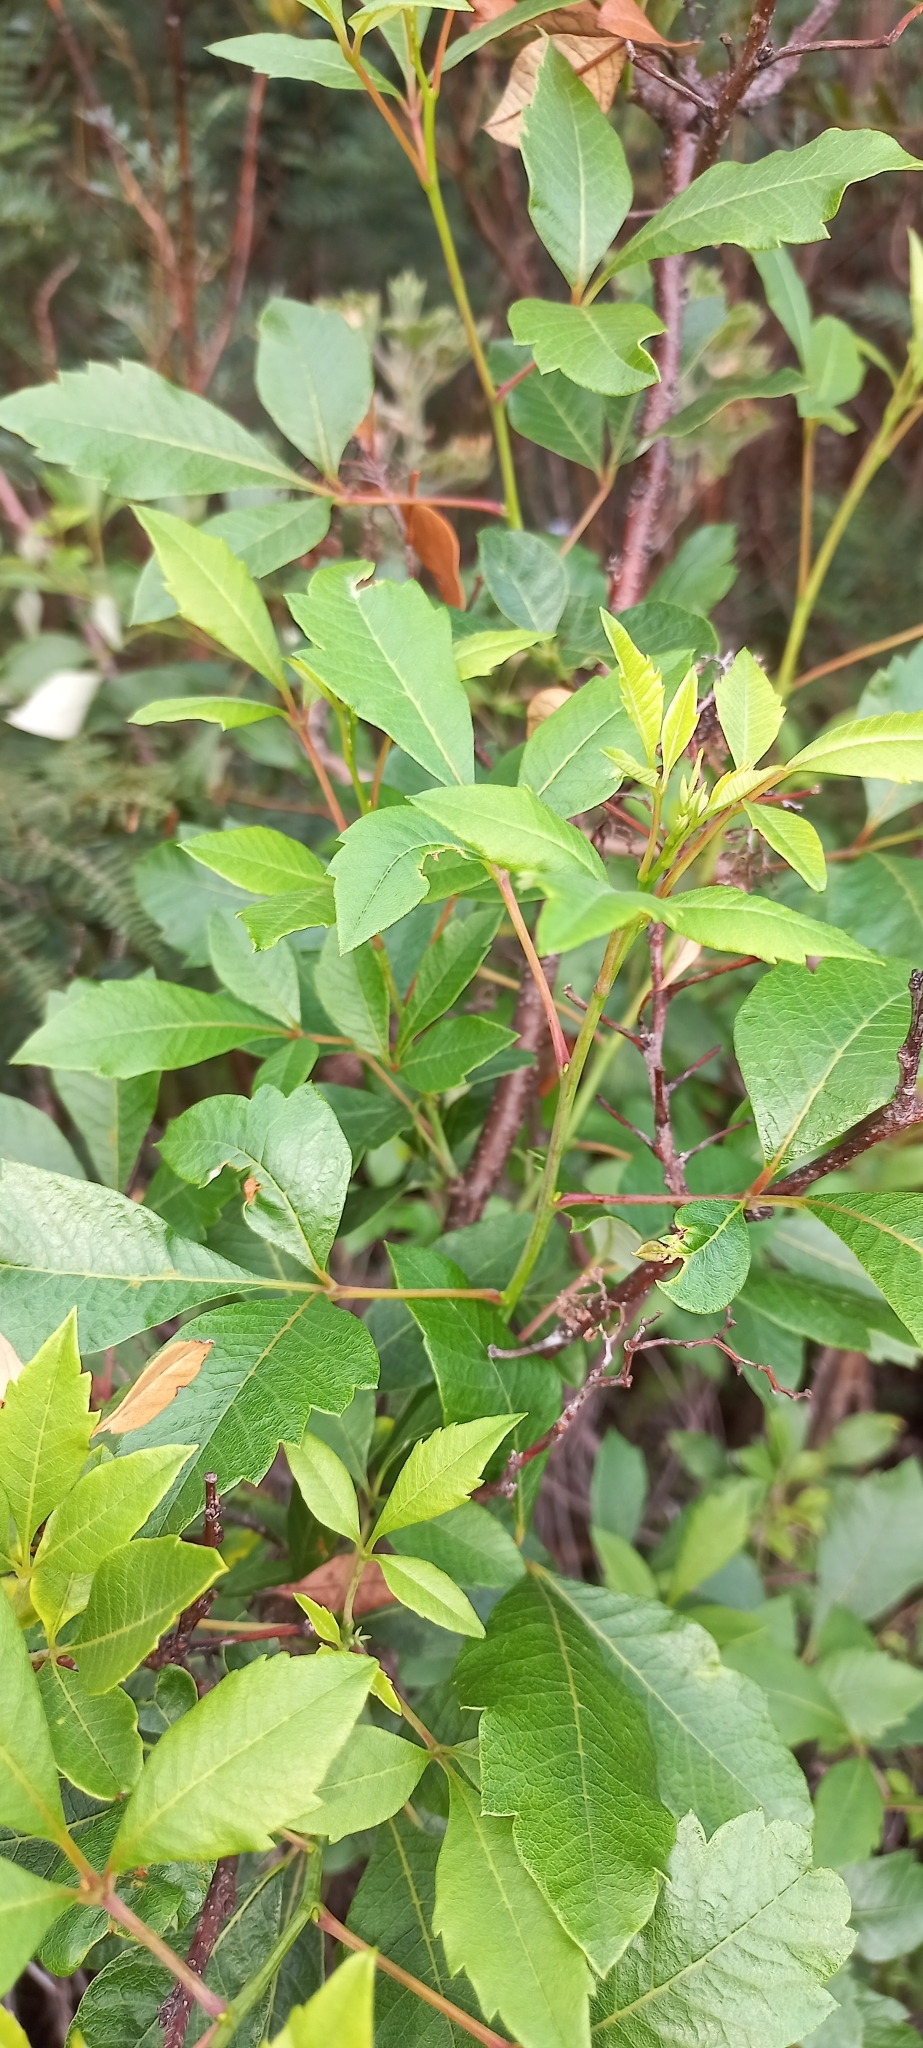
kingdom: Plantae
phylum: Tracheophyta
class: Magnoliopsida
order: Sapindales
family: Anacardiaceae
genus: Searsia
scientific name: Searsia tomentosa
